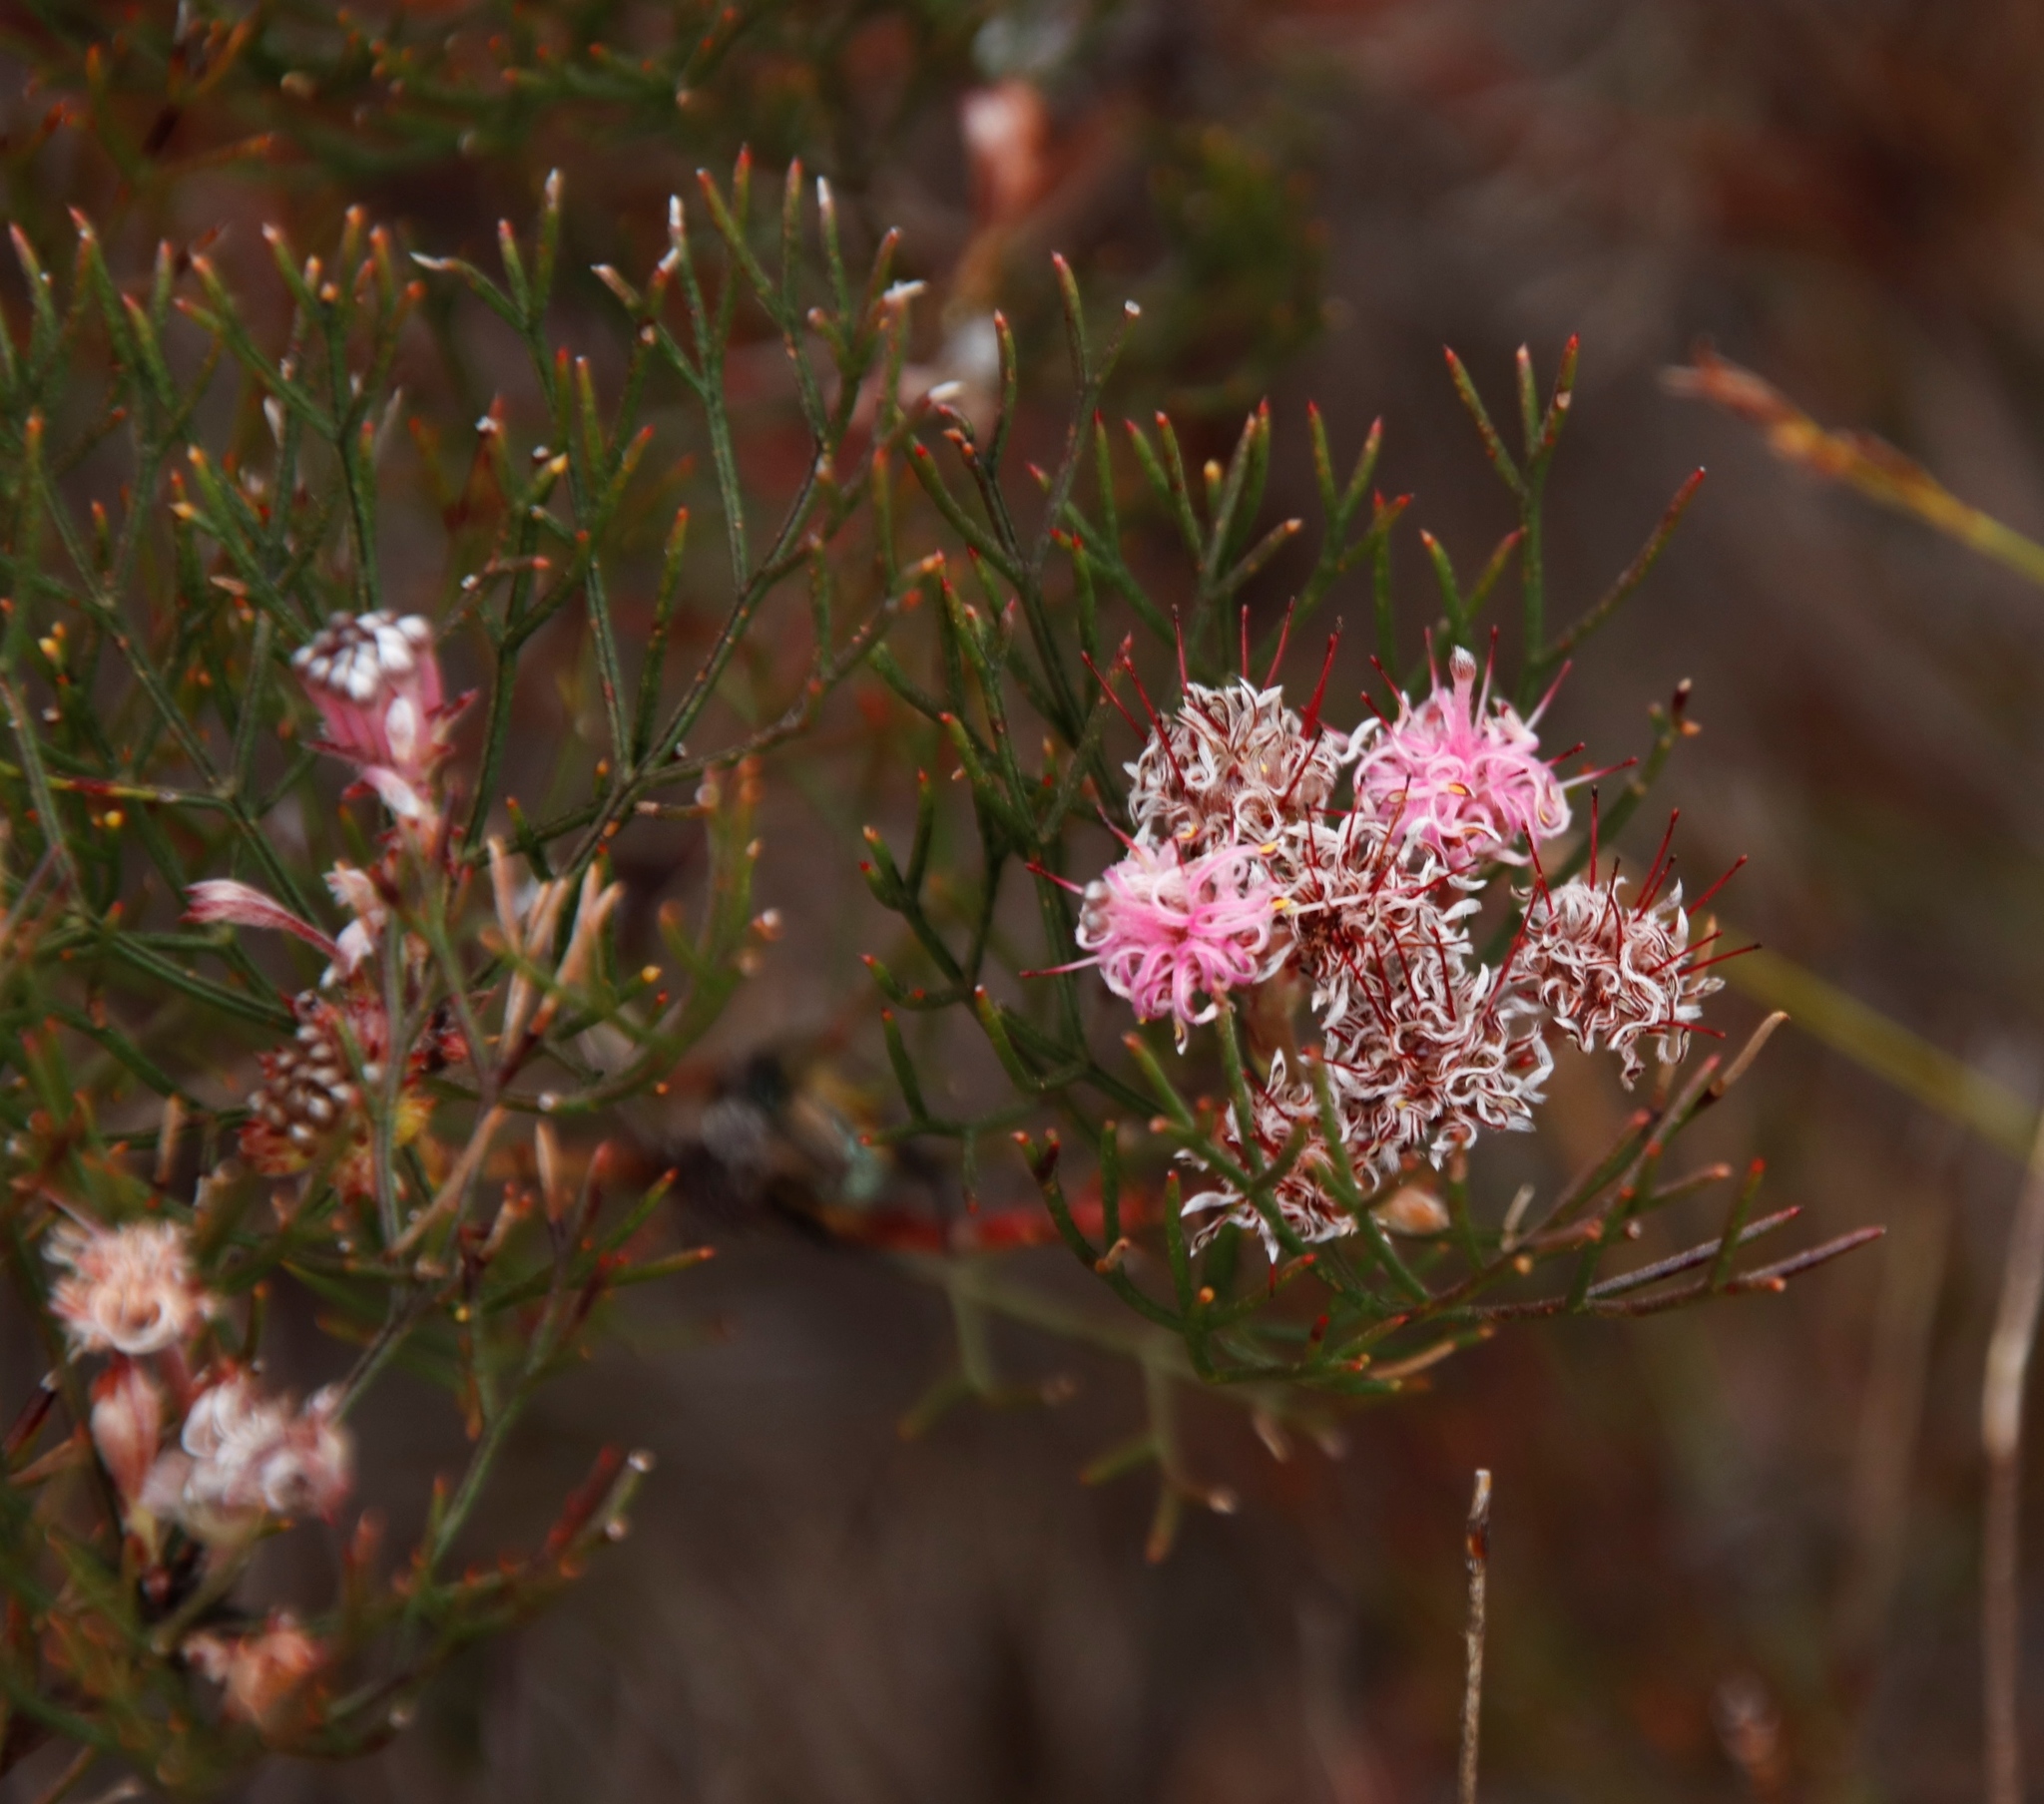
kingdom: Plantae
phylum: Tracheophyta
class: Magnoliopsida
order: Proteales
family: Proteaceae
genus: Serruria
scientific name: Serruria fasciflora
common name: Common pin spiderhead
